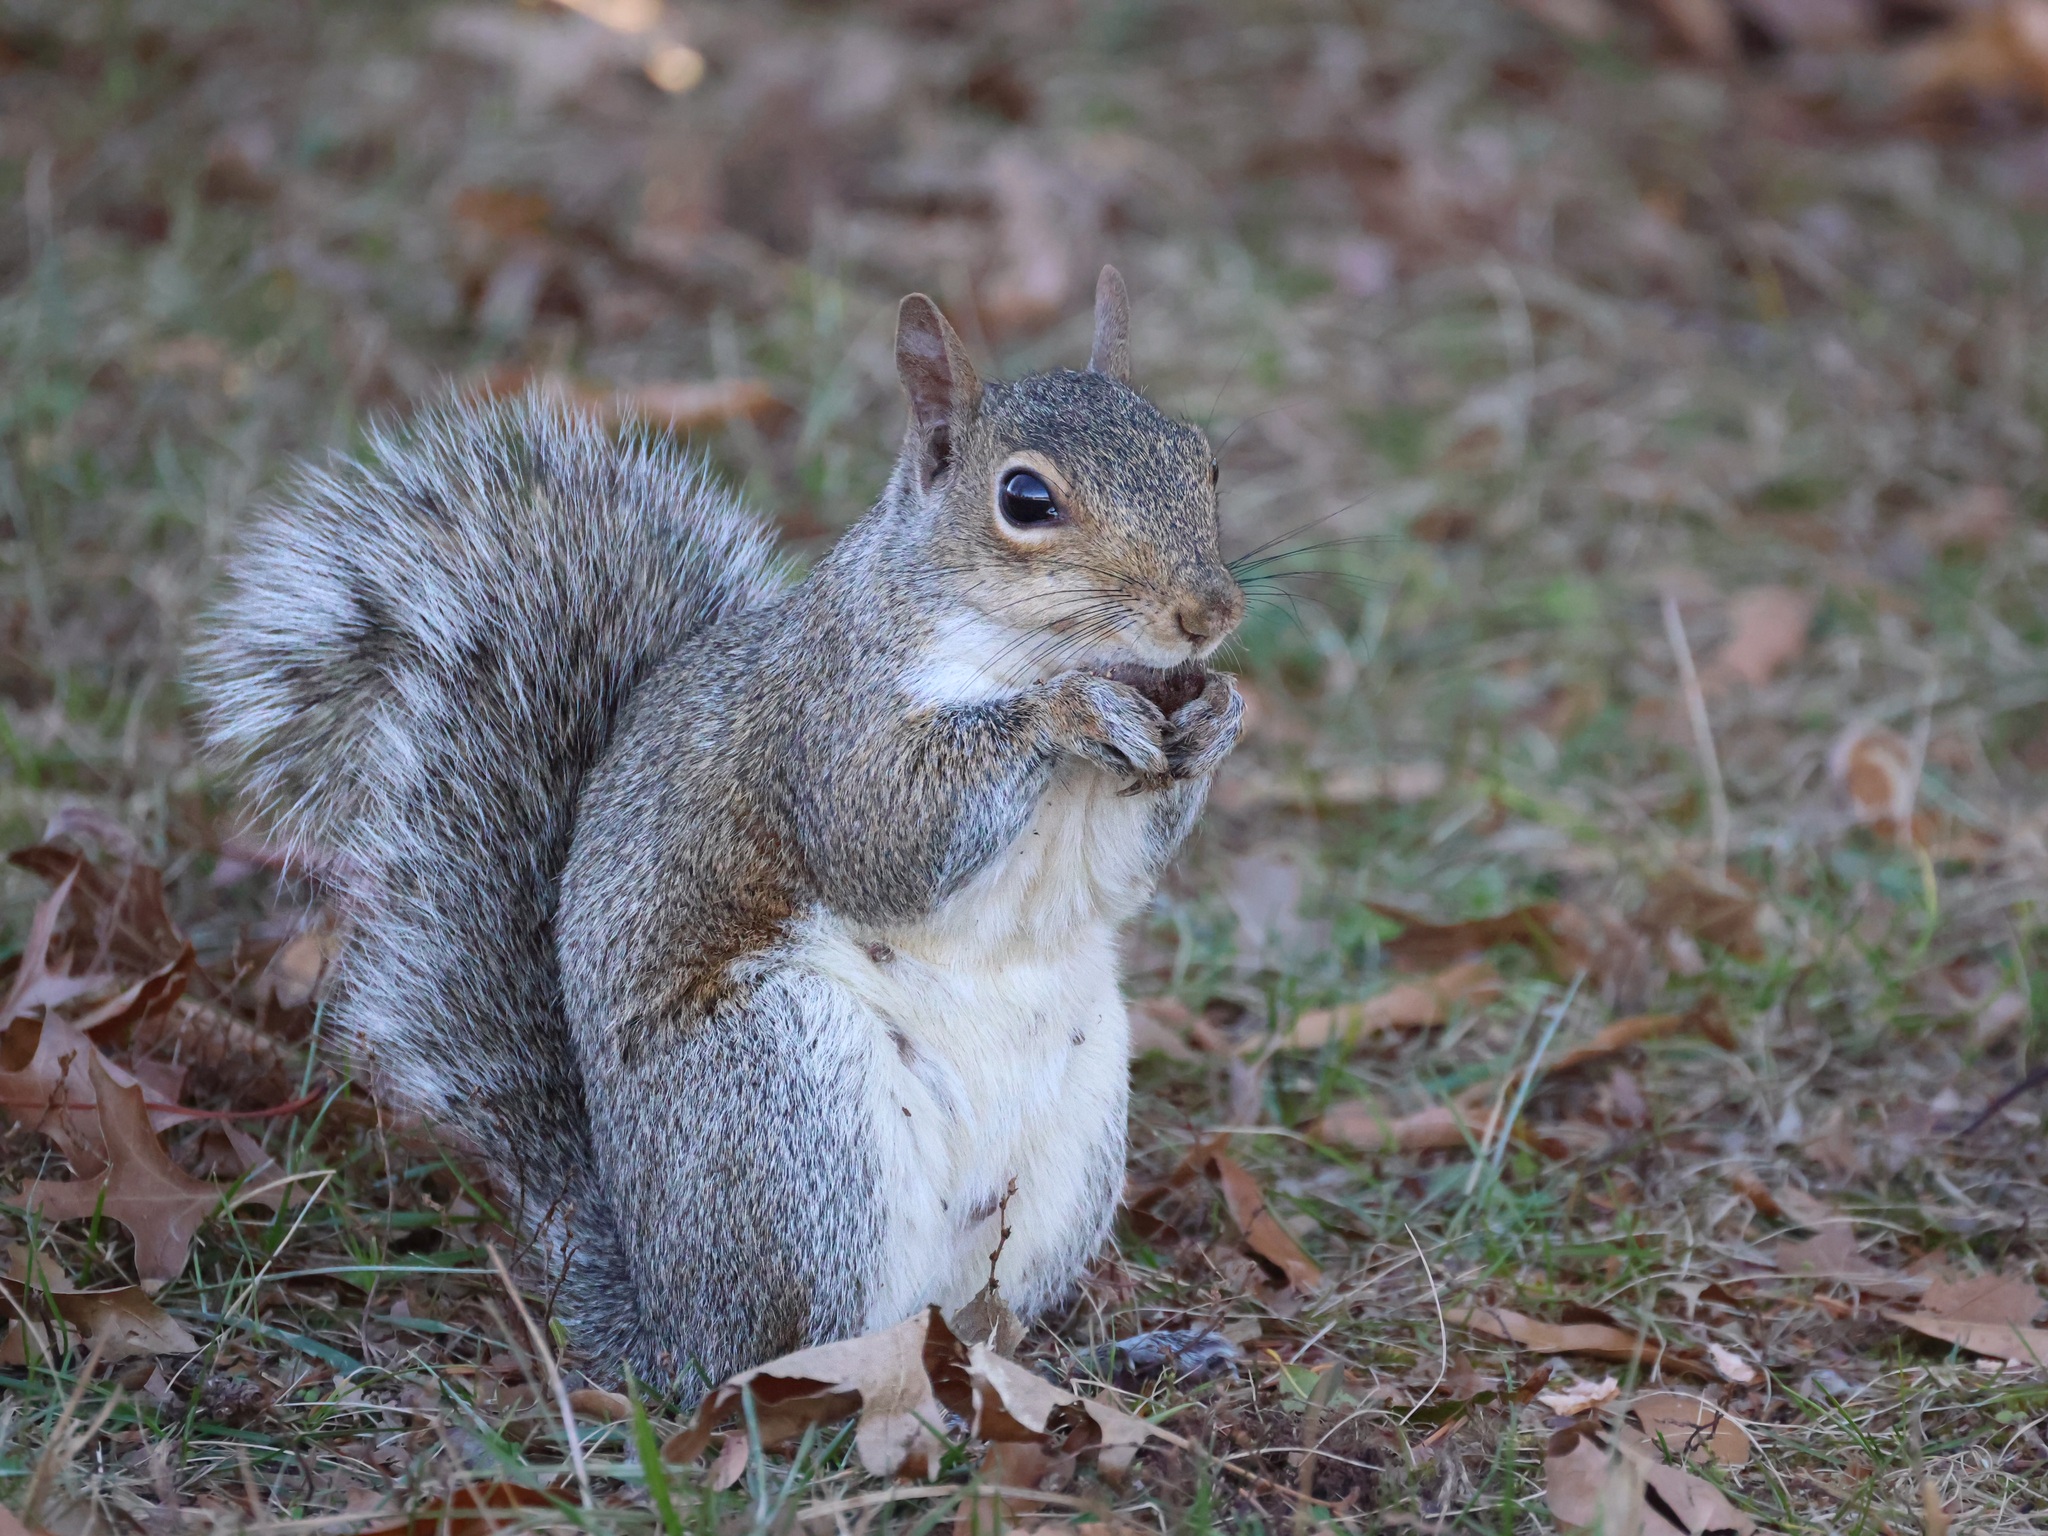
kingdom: Animalia
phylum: Chordata
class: Mammalia
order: Rodentia
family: Sciuridae
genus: Sciurus
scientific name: Sciurus carolinensis
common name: Eastern gray squirrel
